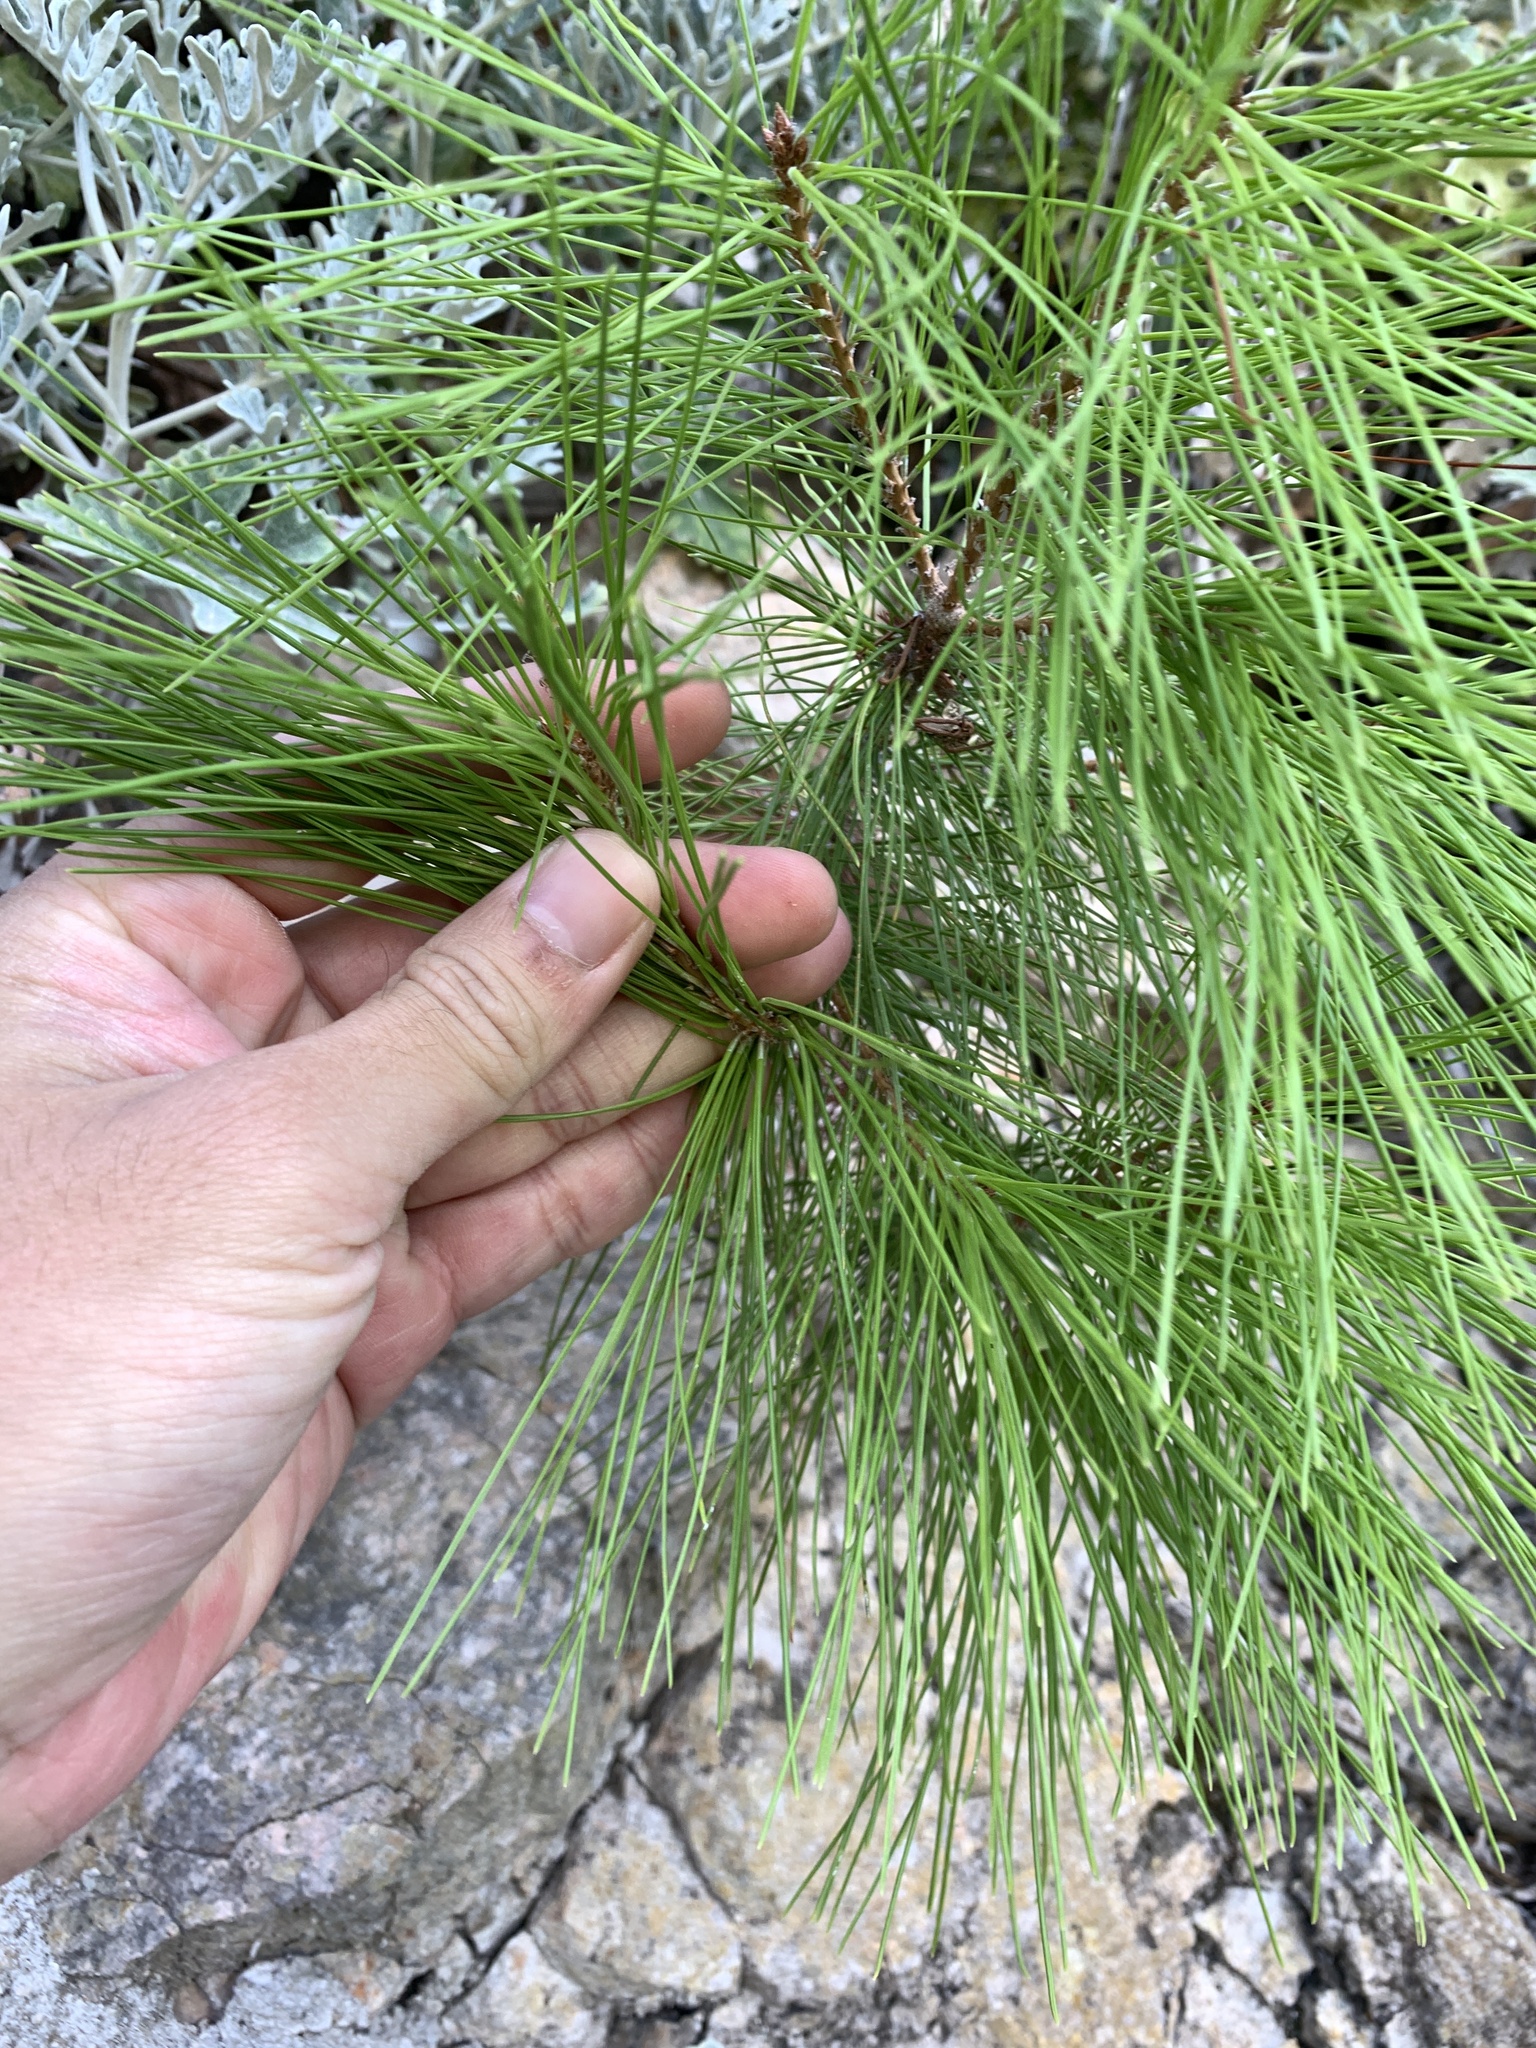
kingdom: Plantae
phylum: Tracheophyta
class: Pinopsida
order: Pinales
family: Pinaceae
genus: Pinus
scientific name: Pinus halepensis
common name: Aleppo pine
